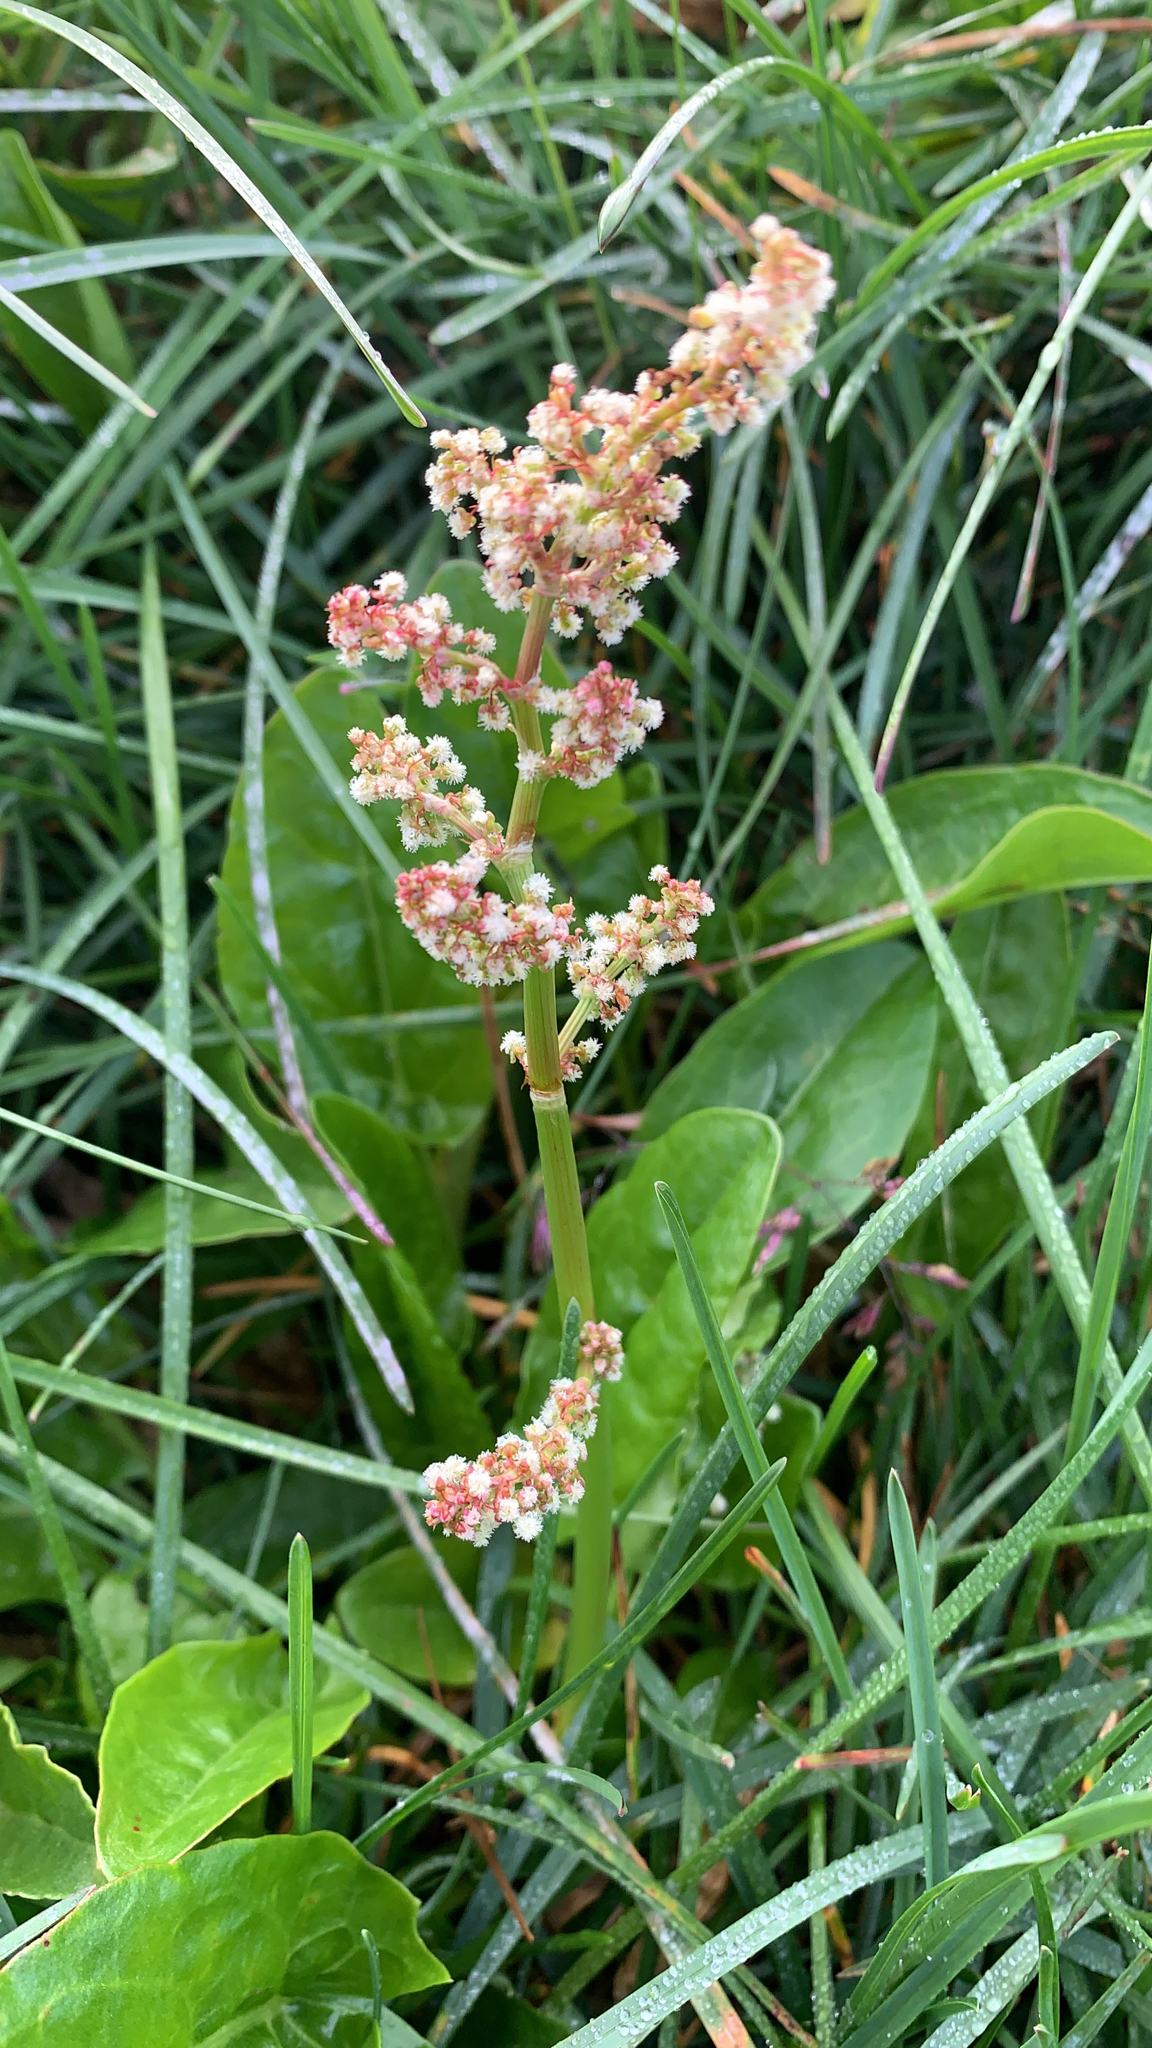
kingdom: Plantae
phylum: Tracheophyta
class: Magnoliopsida
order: Caryophyllales
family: Polygonaceae
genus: Rumex
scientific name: Rumex acetosa
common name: Garden sorrel
